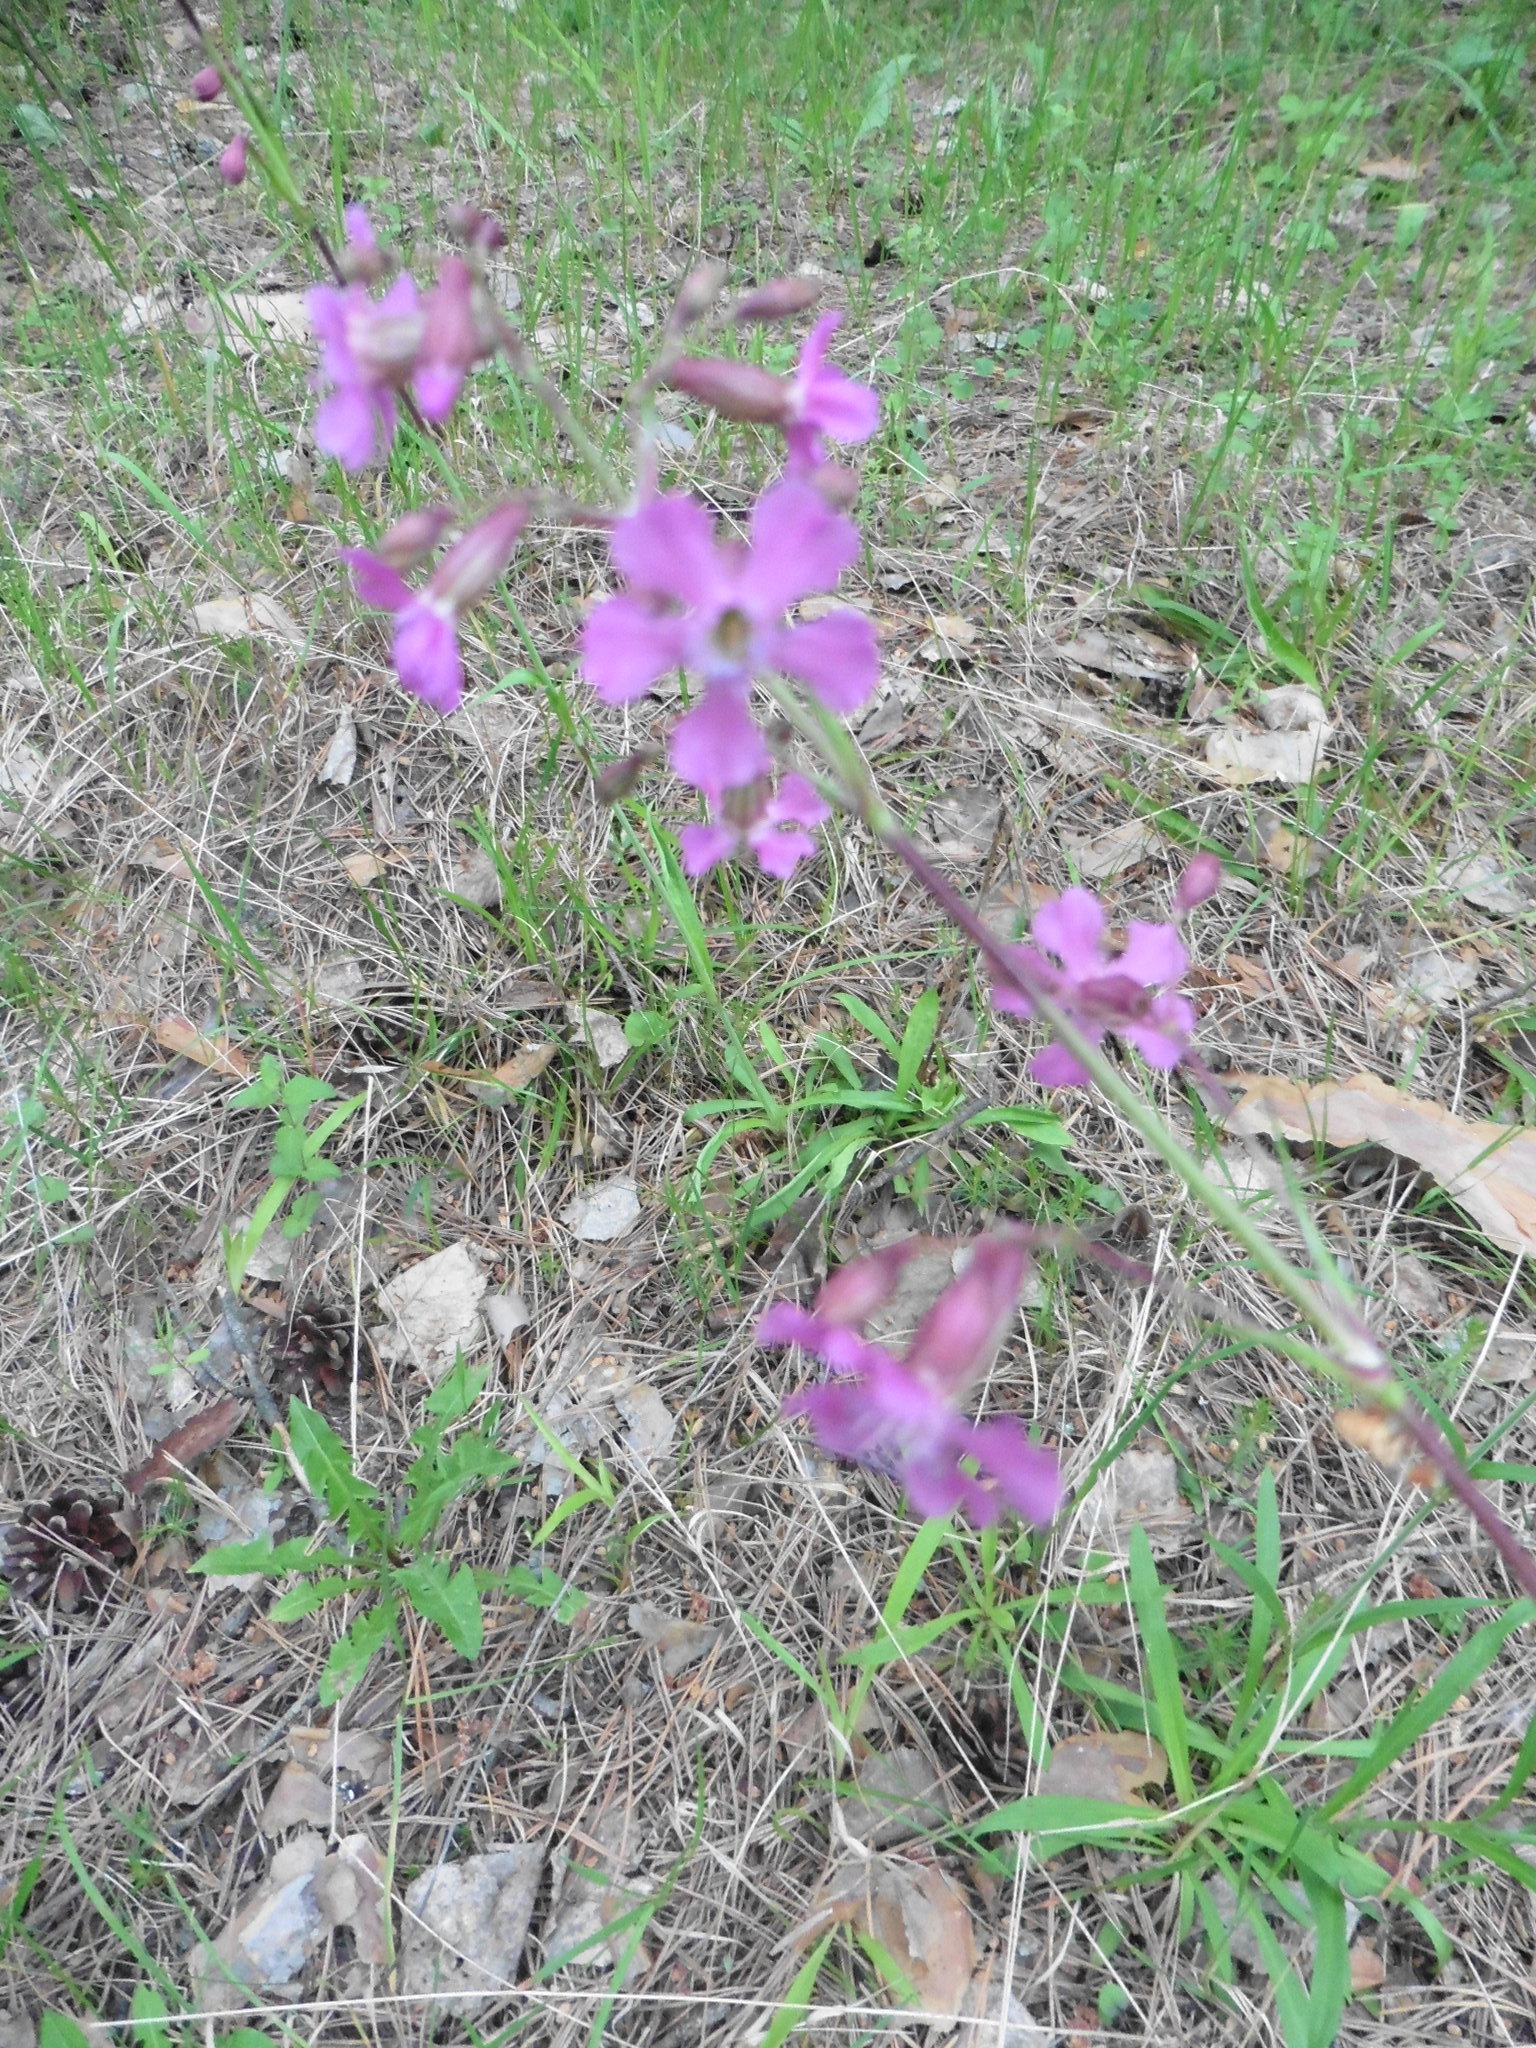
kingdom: Plantae
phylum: Tracheophyta
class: Magnoliopsida
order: Caryophyllales
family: Caryophyllaceae
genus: Viscaria
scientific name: Viscaria vulgaris
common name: Clammy campion
